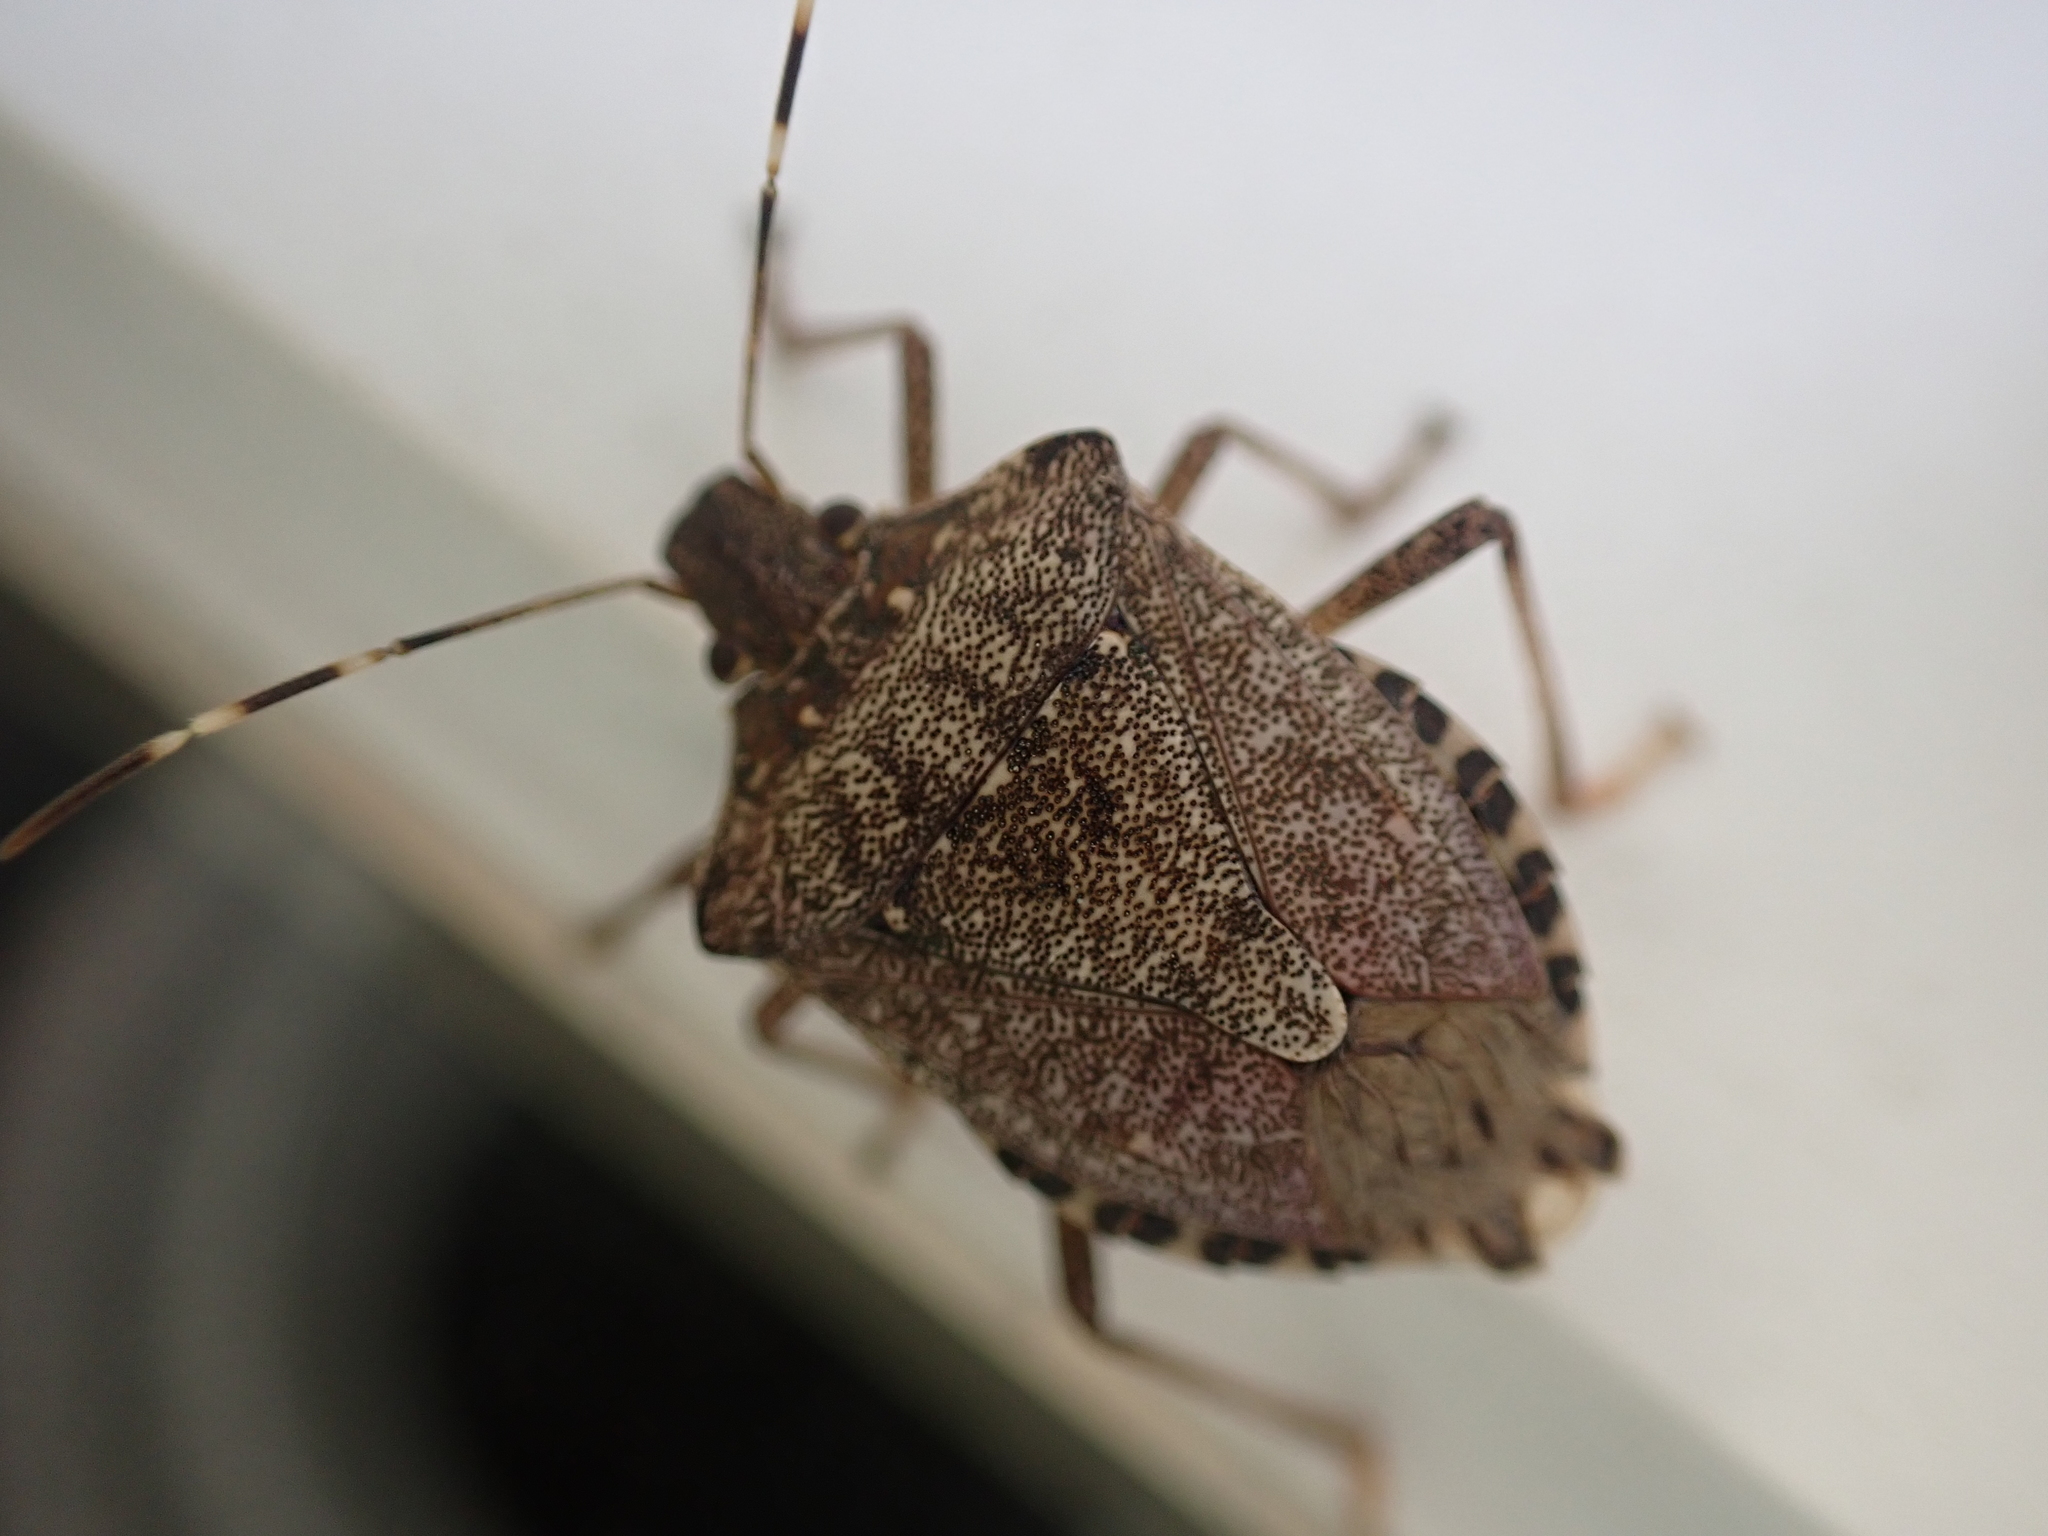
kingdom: Animalia
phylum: Arthropoda
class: Insecta
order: Hemiptera
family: Pentatomidae
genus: Halyomorpha
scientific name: Halyomorpha halys
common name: Brown marmorated stink bug
